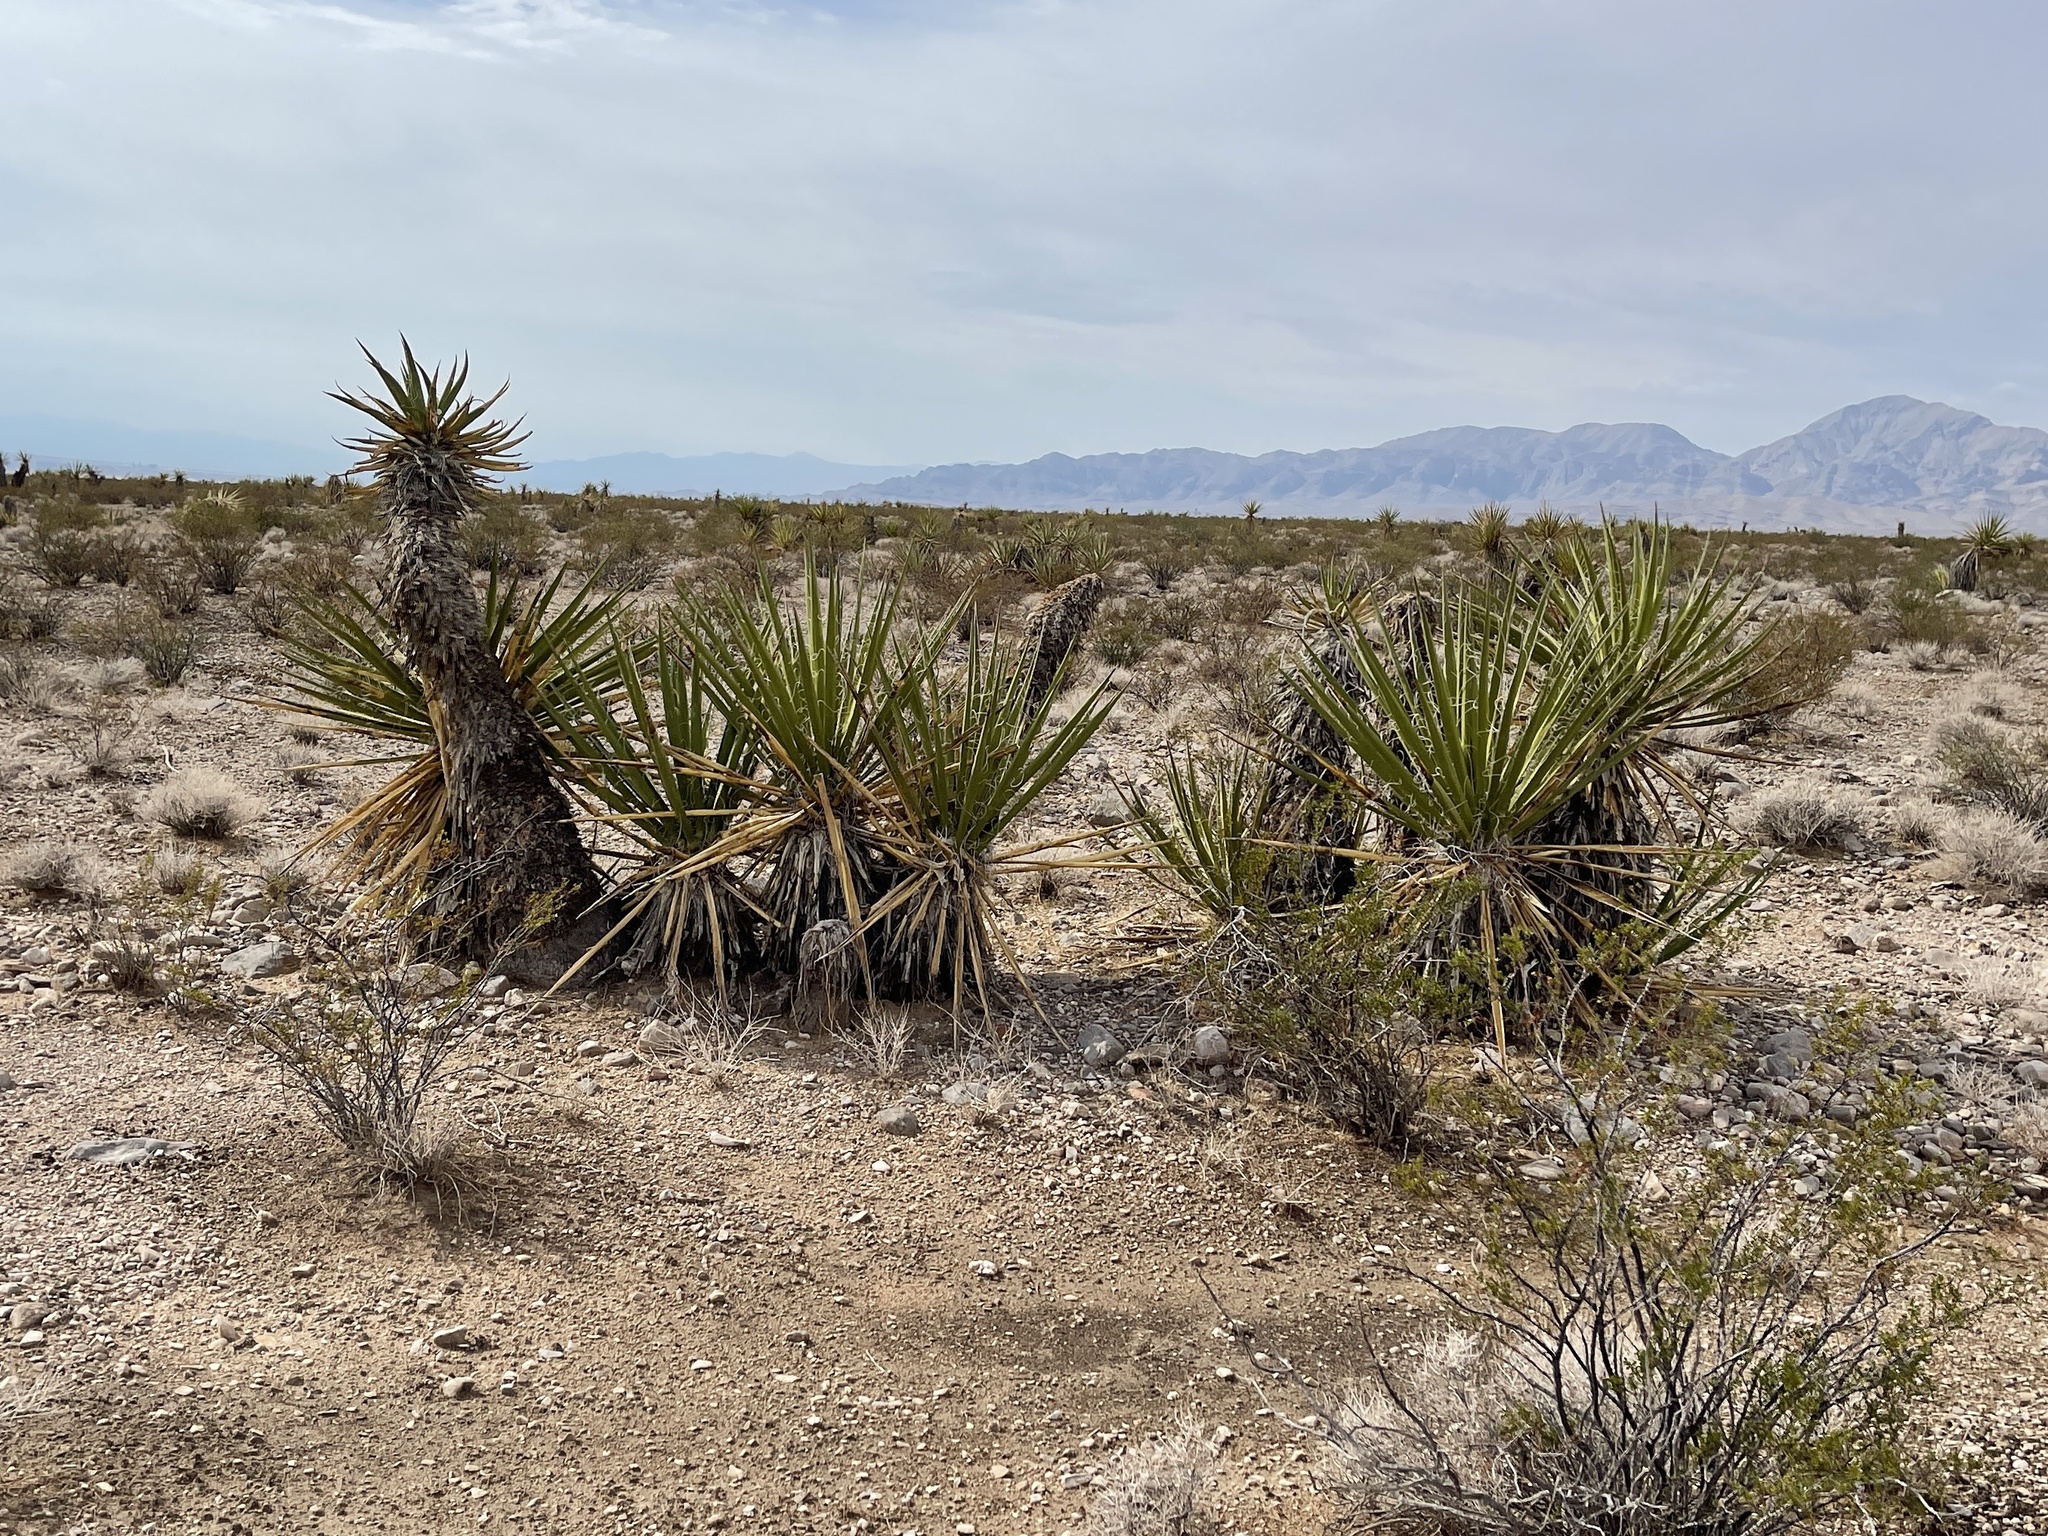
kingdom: Plantae
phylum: Tracheophyta
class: Liliopsida
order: Asparagales
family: Asparagaceae
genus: Yucca
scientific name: Yucca schidigera
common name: Mojave yucca
